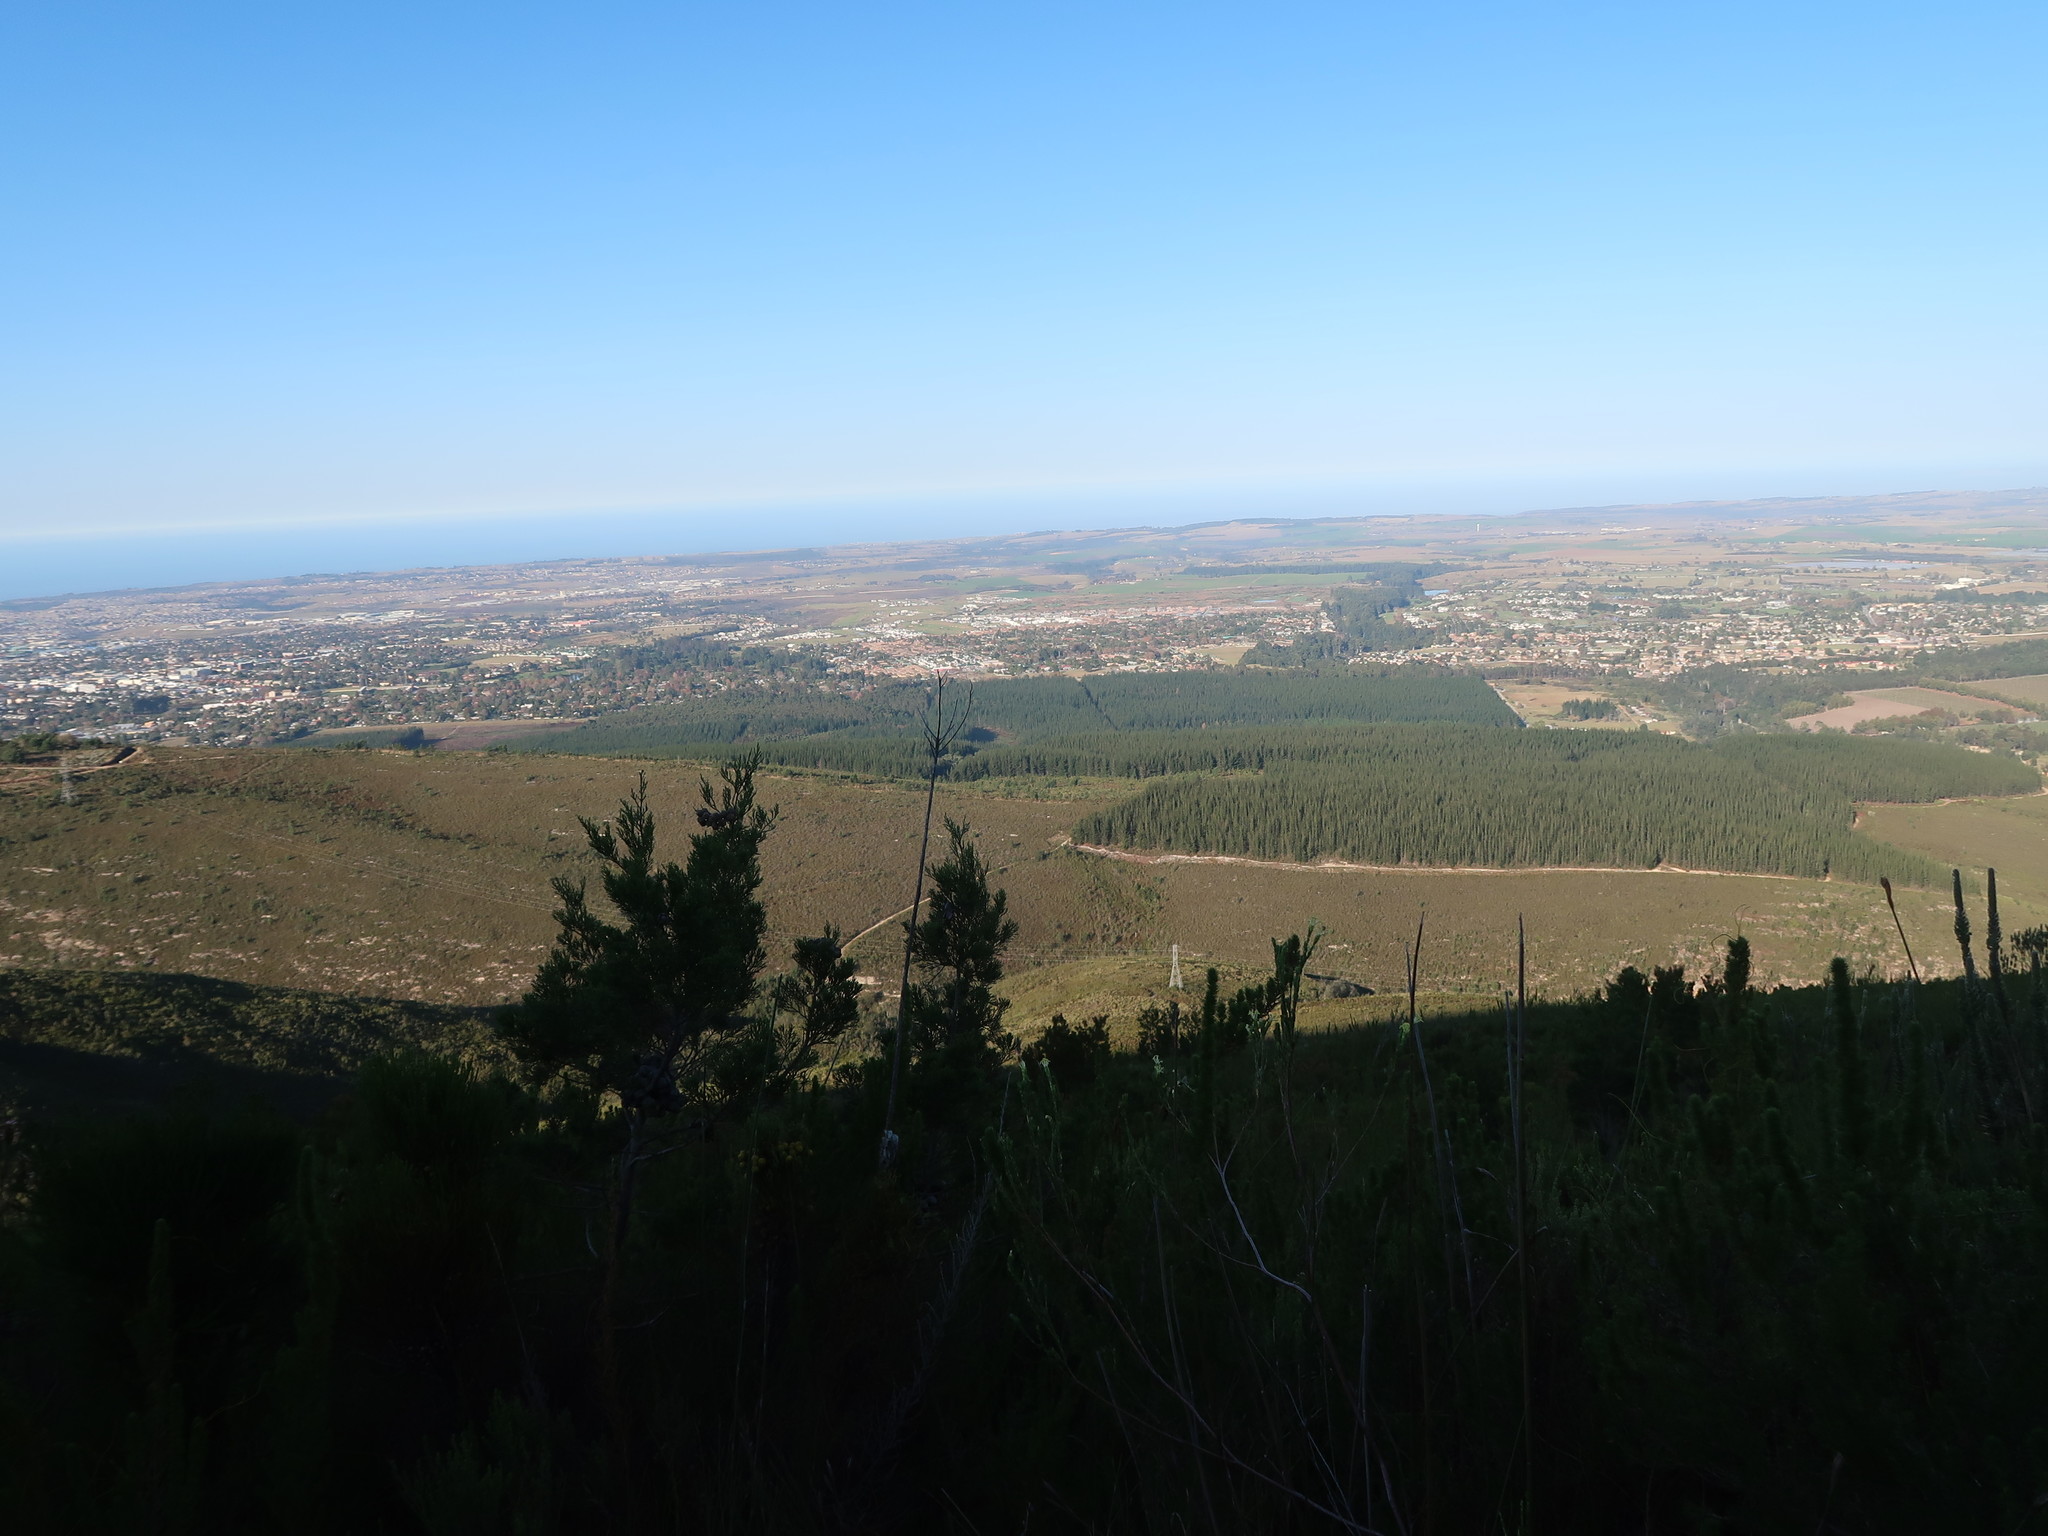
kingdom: Plantae
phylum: Tracheophyta
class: Pinopsida
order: Pinales
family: Pinaceae
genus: Pinus
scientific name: Pinus radiata
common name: Monterey pine
